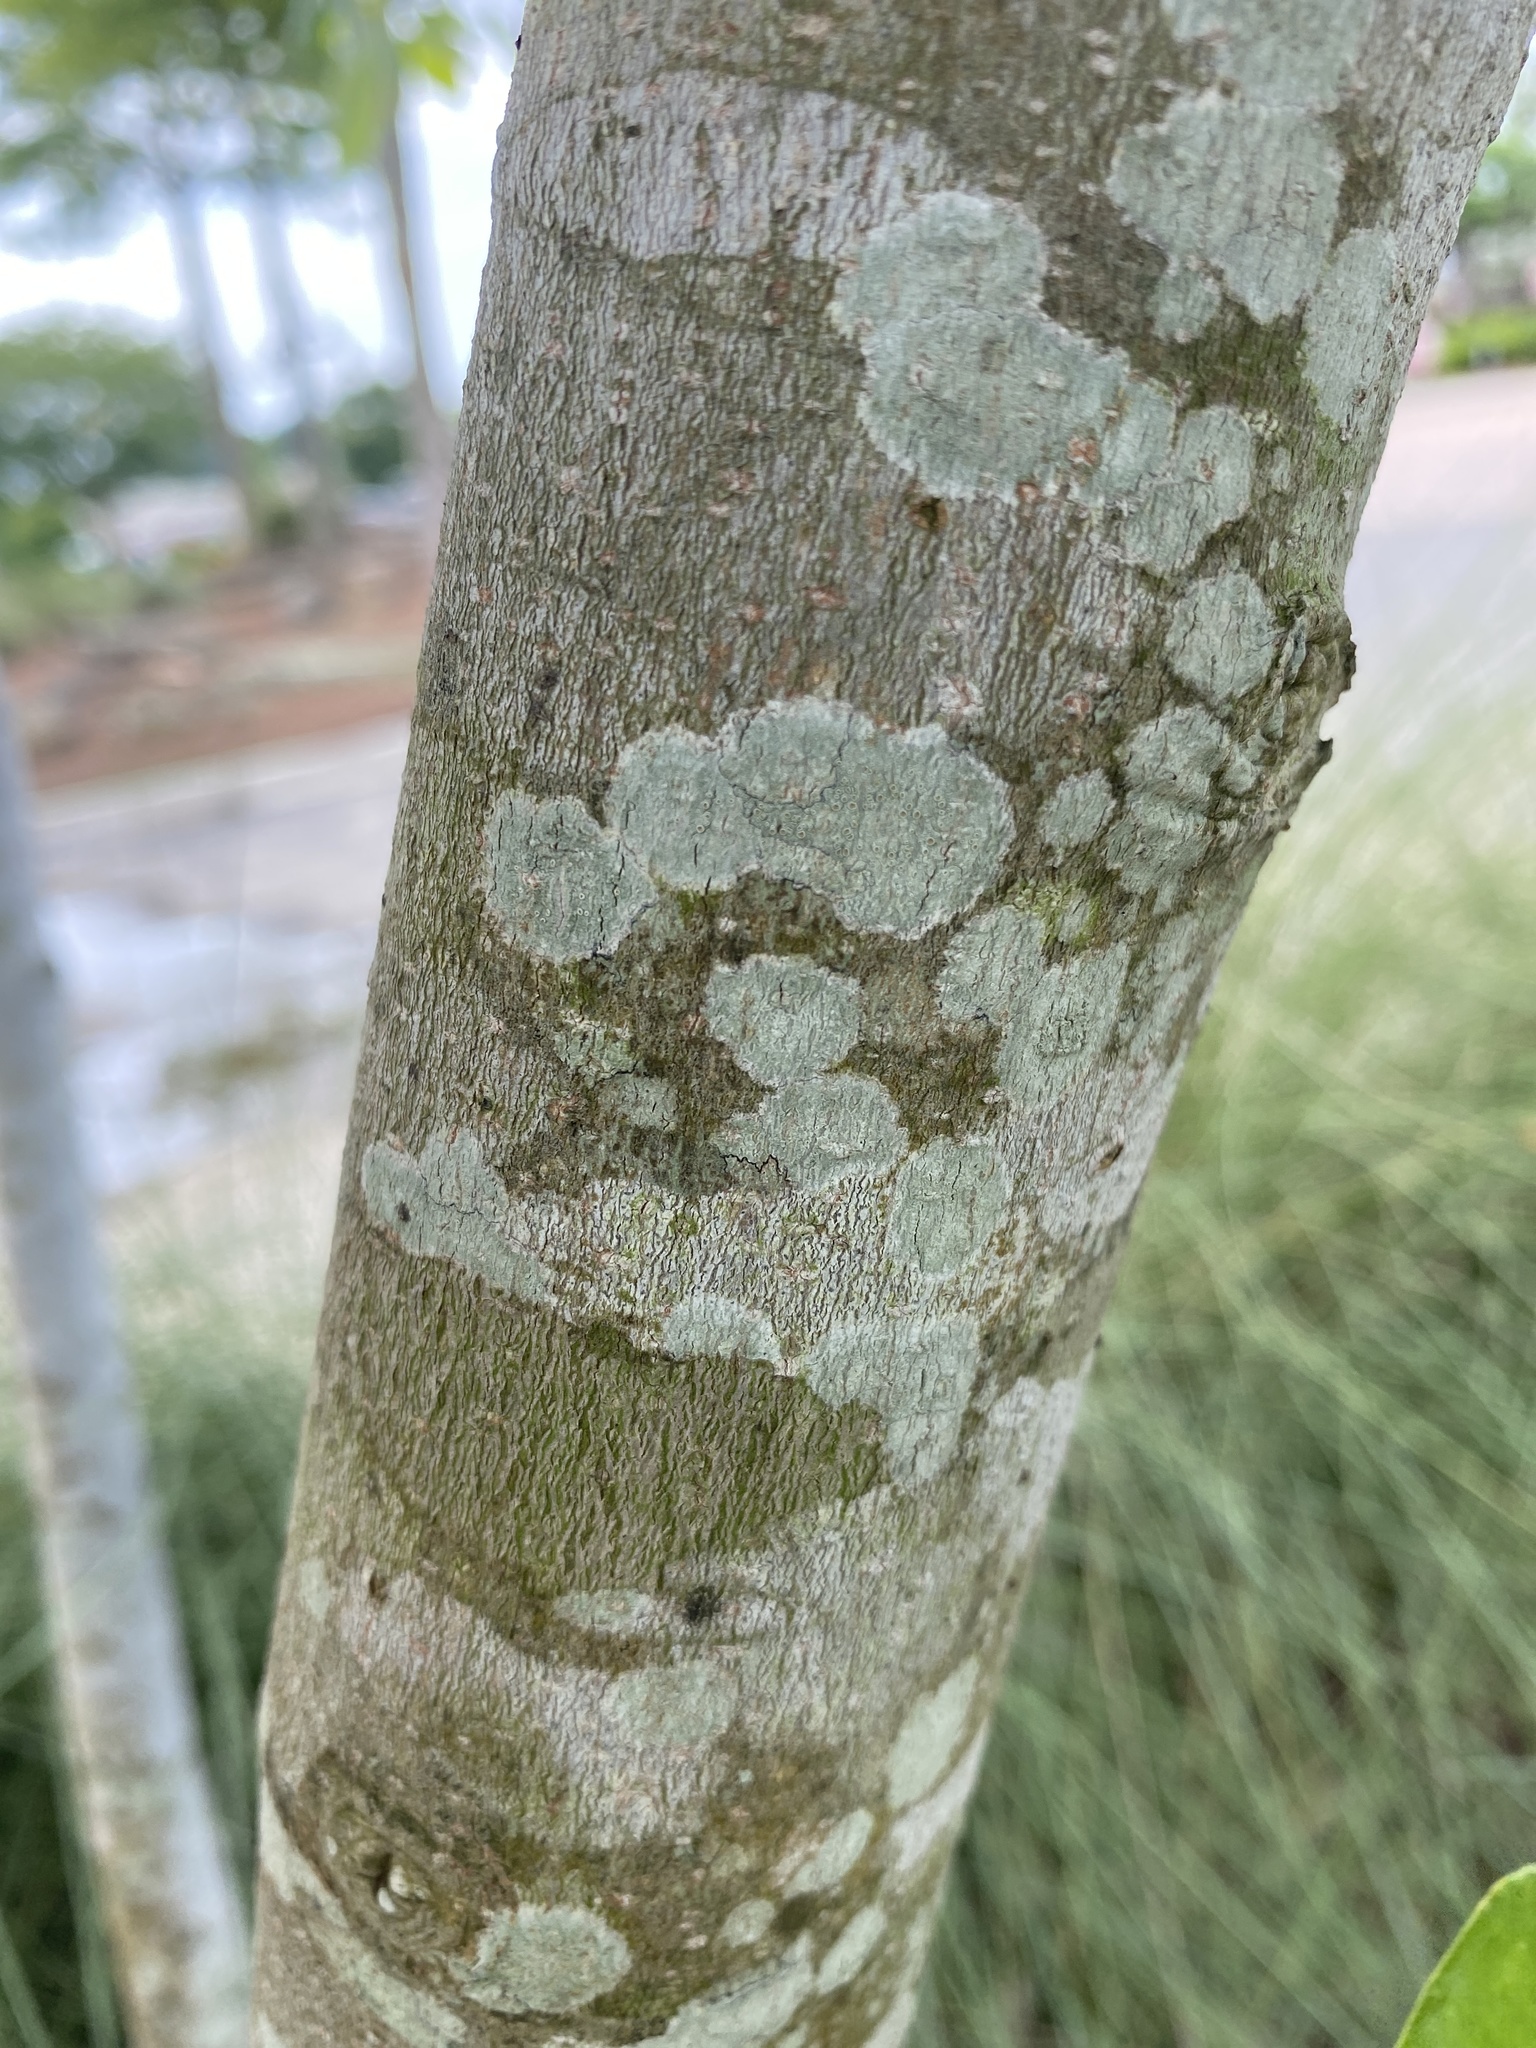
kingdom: Plantae
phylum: Tracheophyta
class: Magnoliopsida
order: Magnoliales
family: Magnoliaceae
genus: Magnolia
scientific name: Magnolia virginiana
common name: Swamp bay
